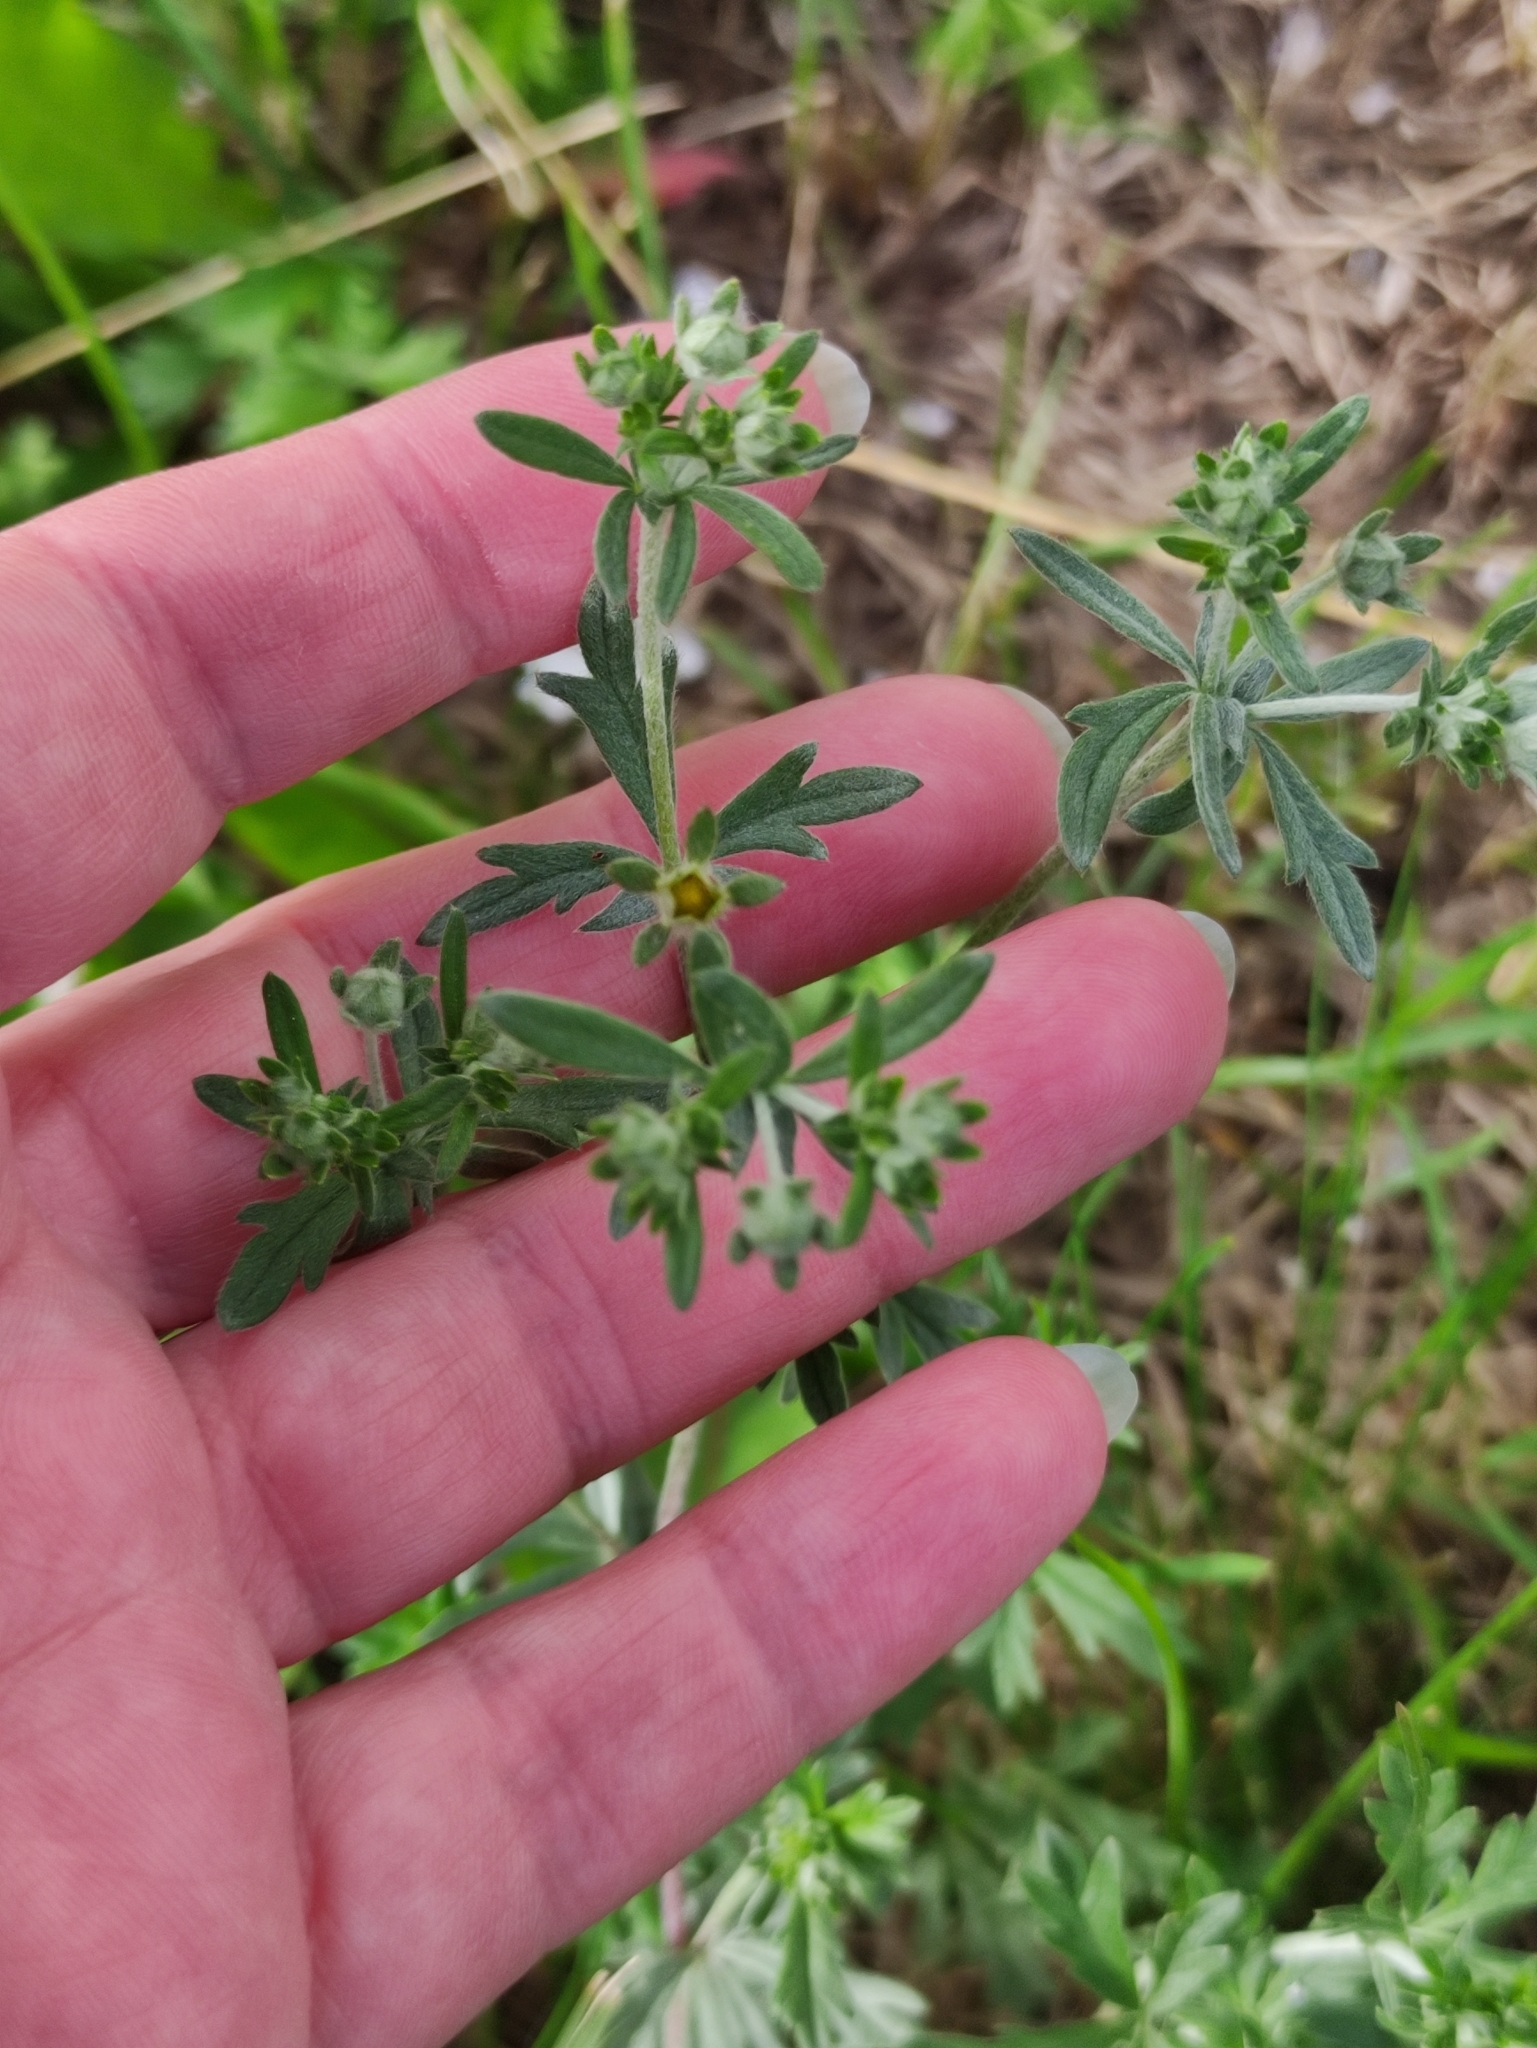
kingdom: Plantae
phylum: Tracheophyta
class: Magnoliopsida
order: Rosales
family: Rosaceae
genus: Potentilla
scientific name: Potentilla argentea
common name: Hoary cinquefoil
